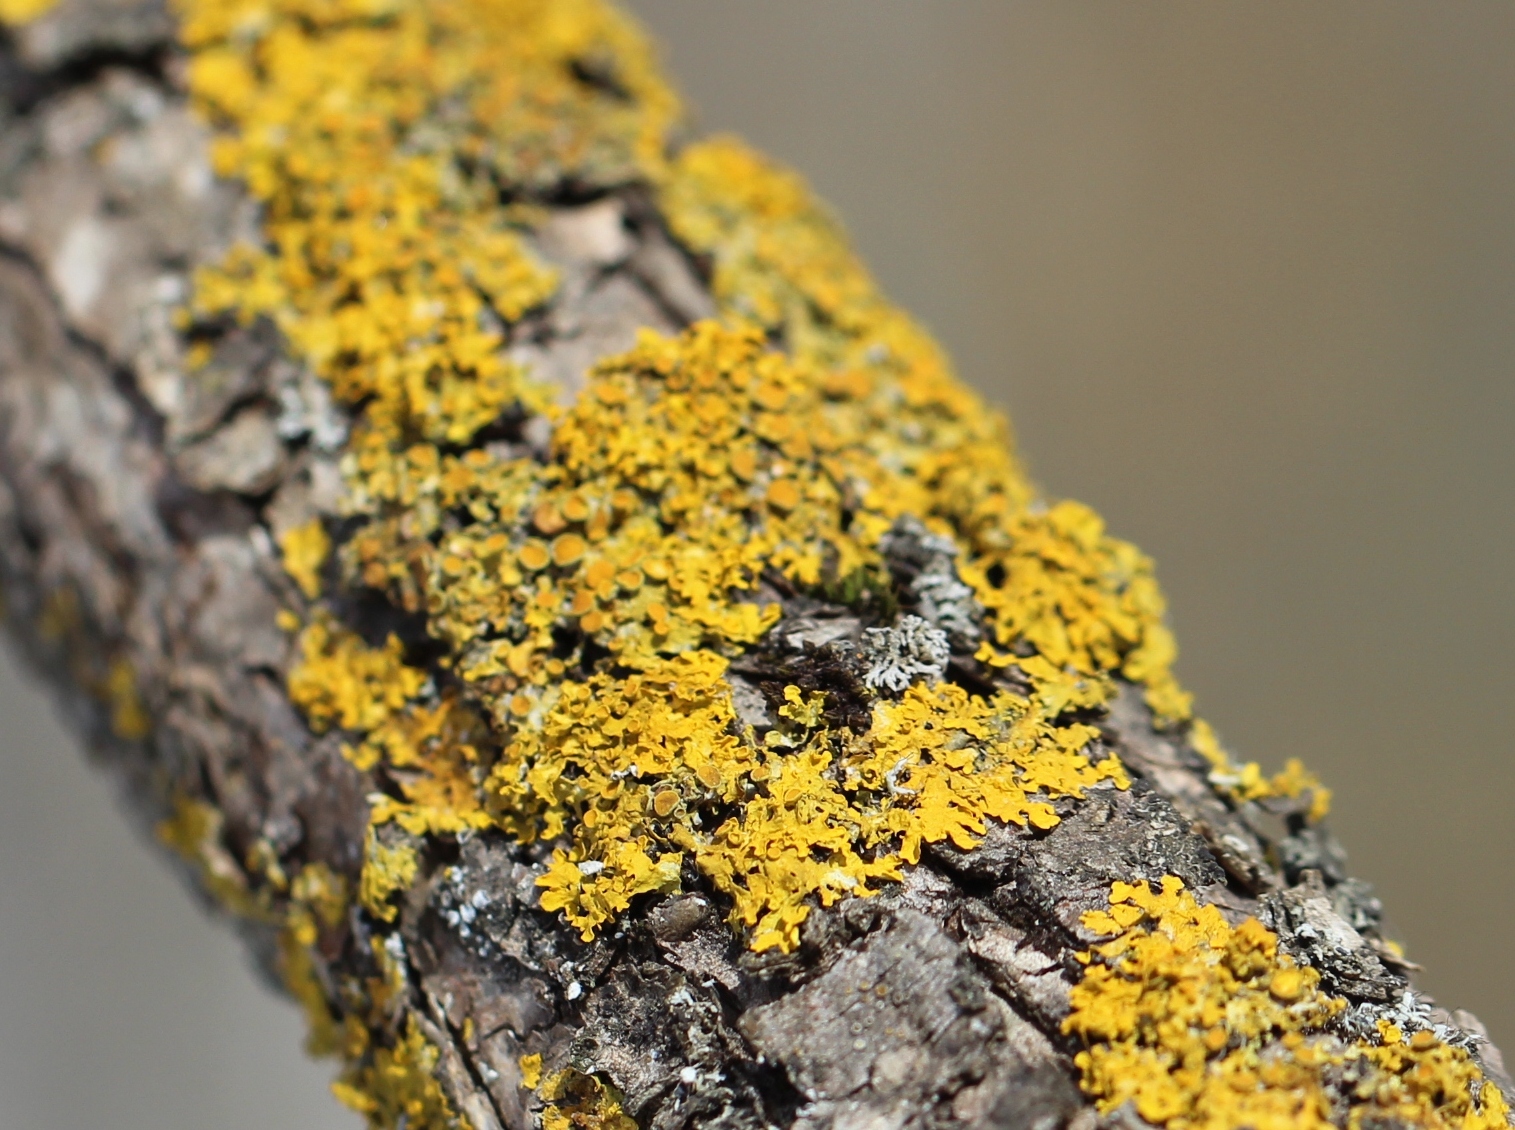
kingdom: Fungi
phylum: Ascomycota
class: Lecanoromycetes
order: Teloschistales
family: Teloschistaceae
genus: Xanthoria
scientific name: Xanthoria parietina
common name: Common orange lichen
